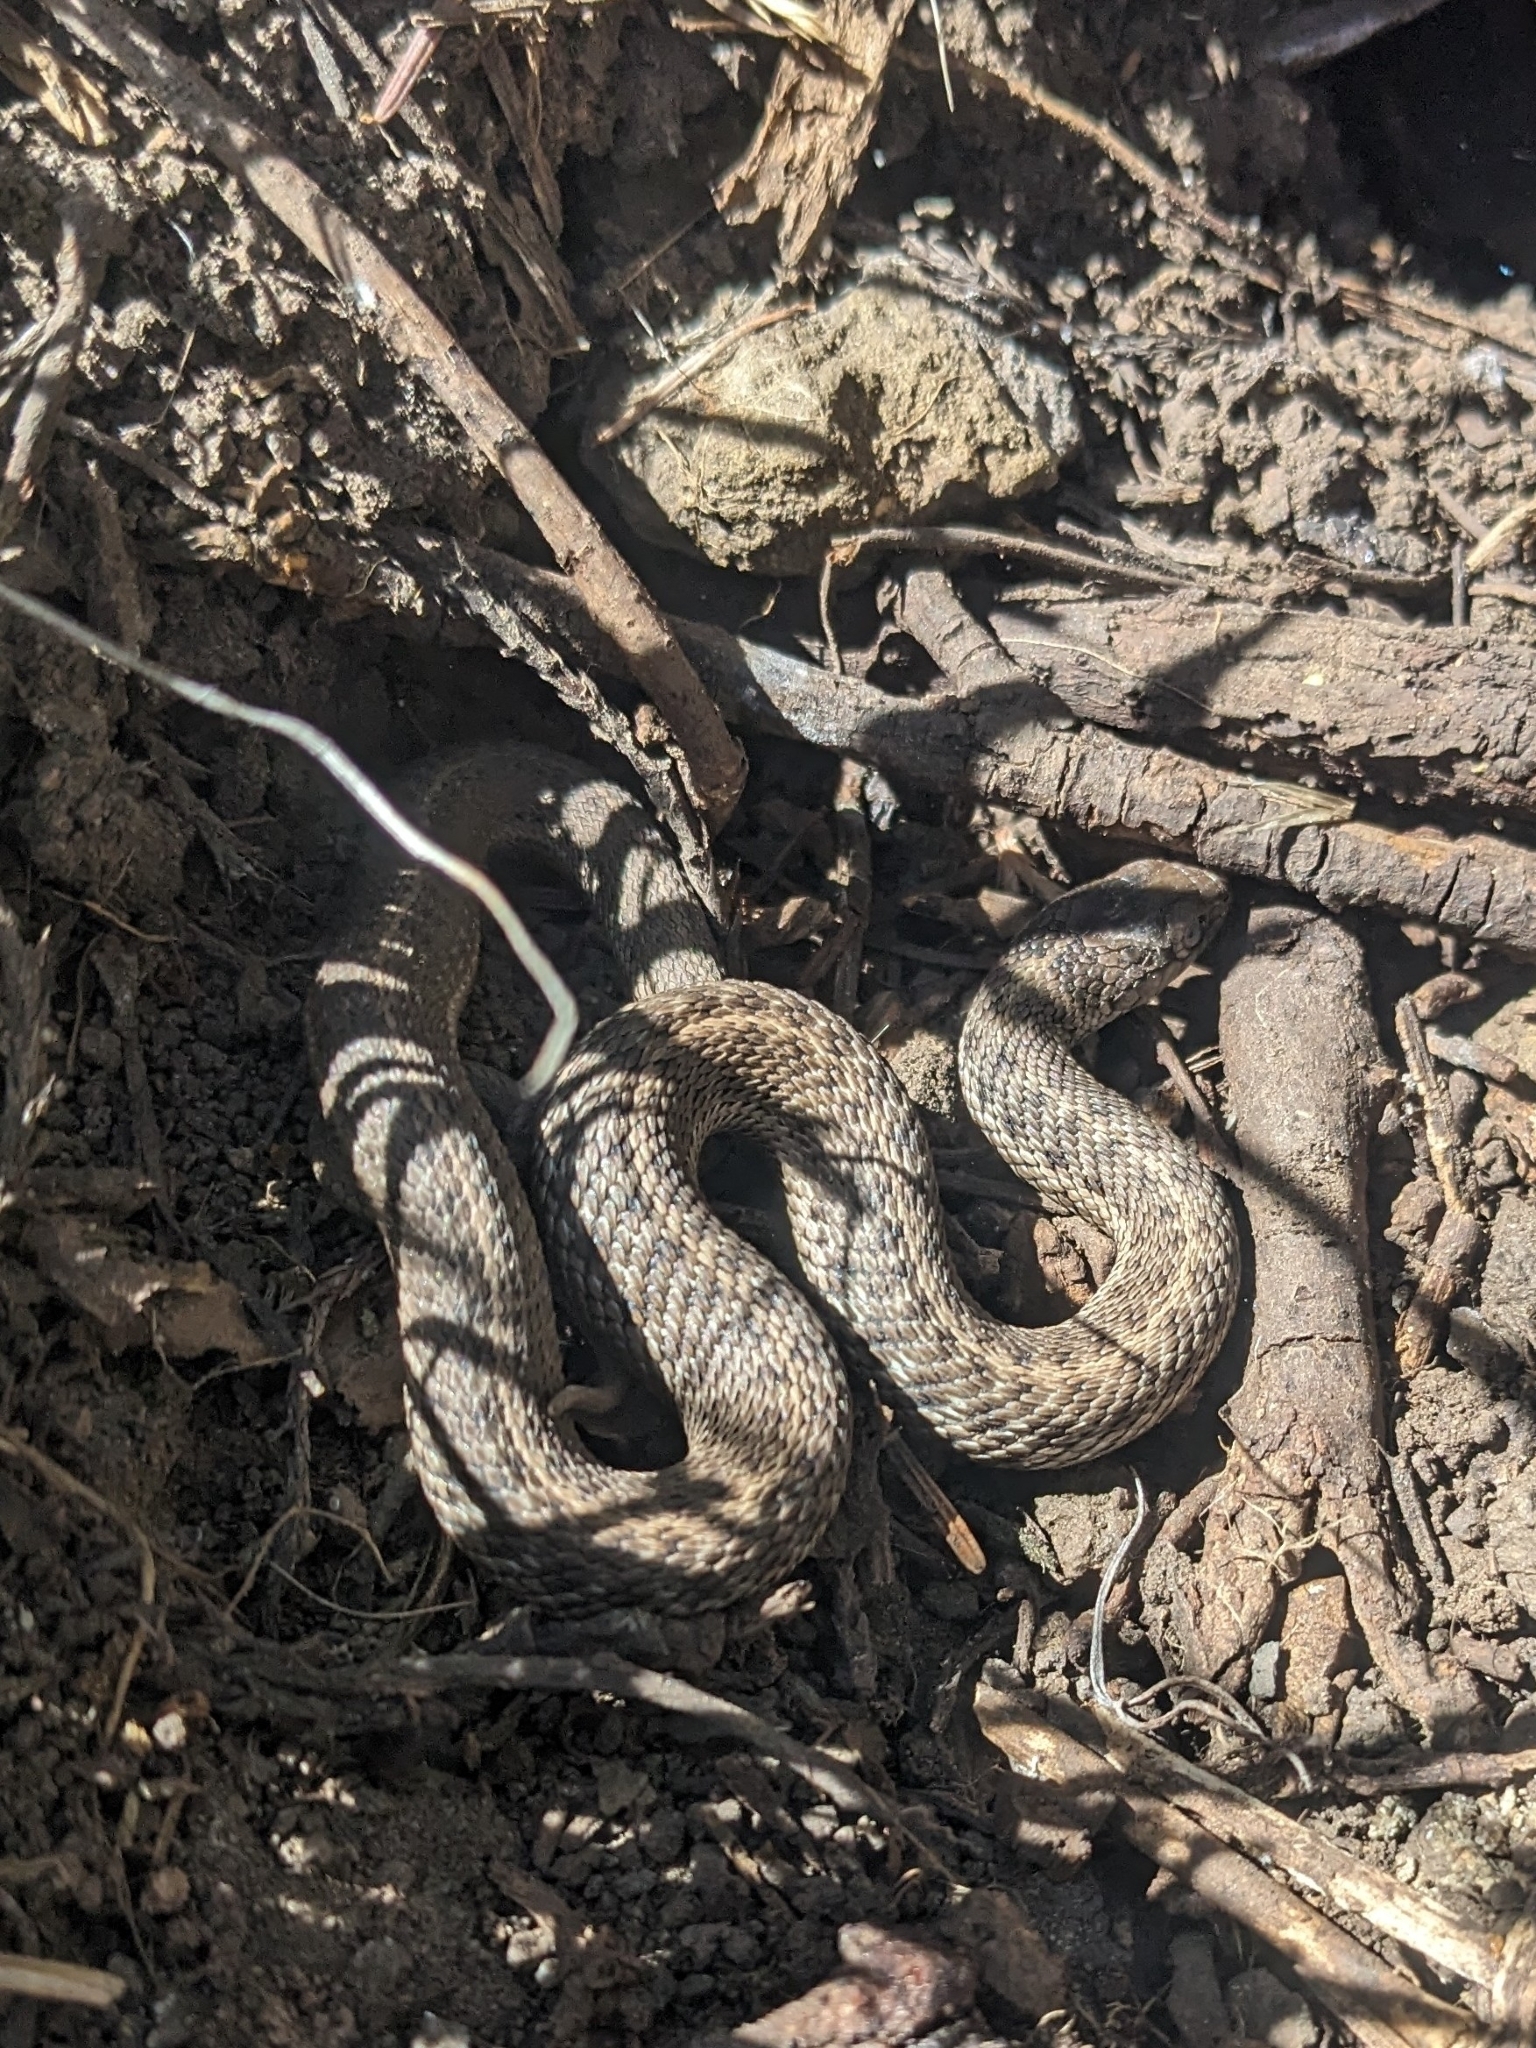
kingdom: Animalia
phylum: Chordata
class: Squamata
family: Colubridae
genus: Thamnophis
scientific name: Thamnophis elegans
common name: Western terrestrial garter snake
